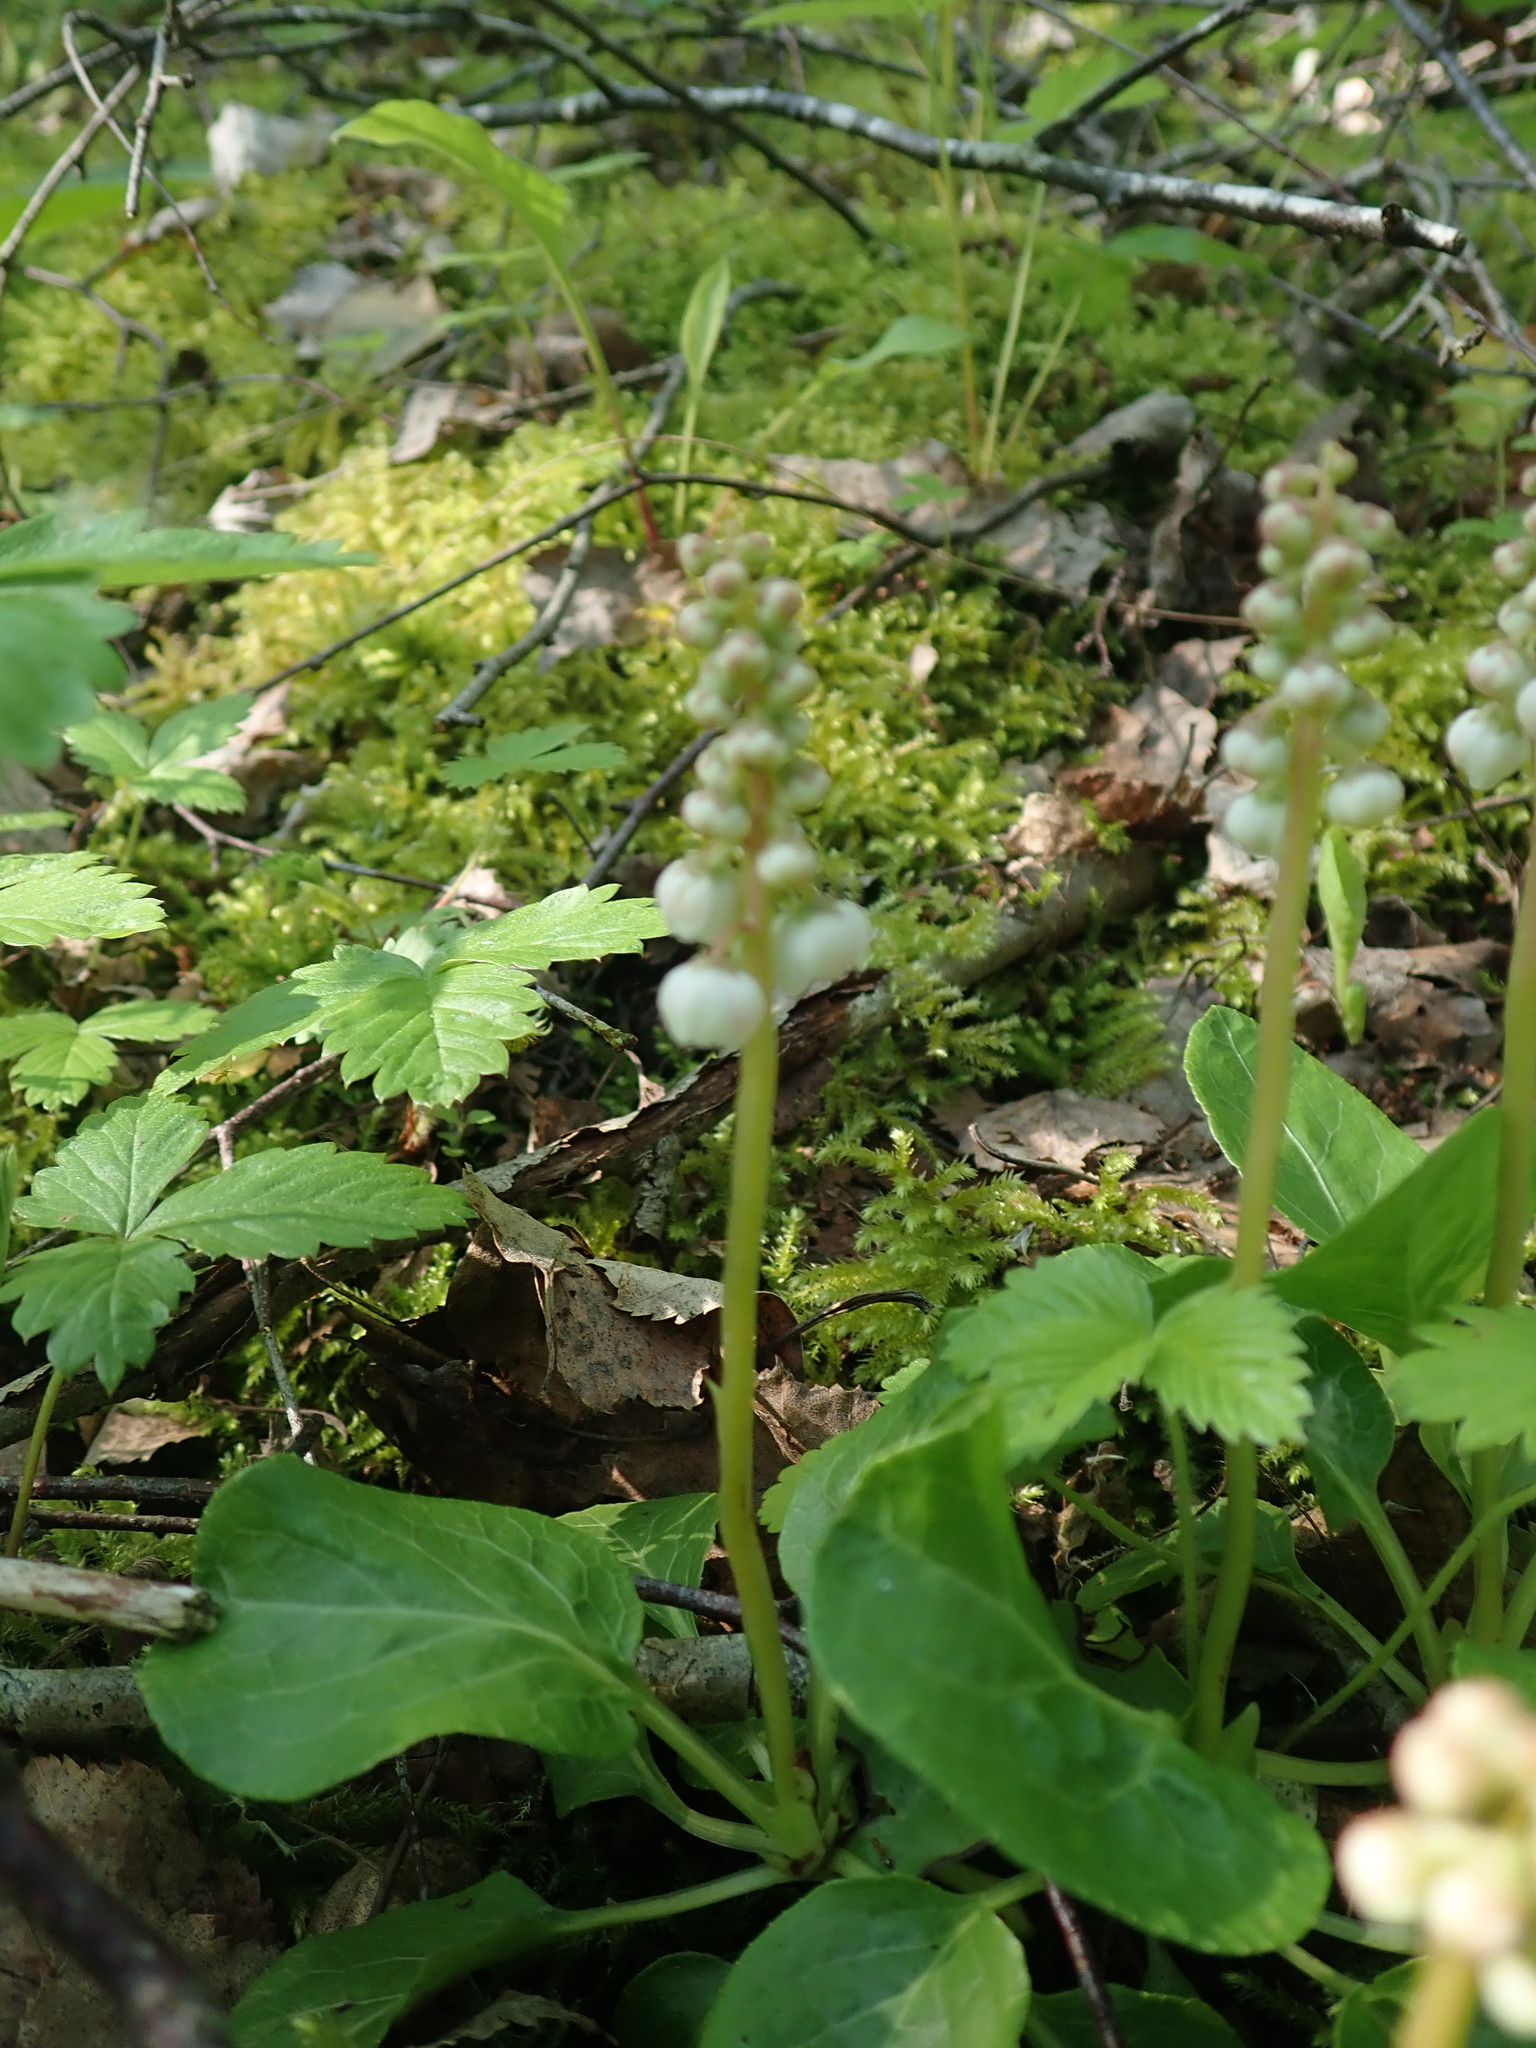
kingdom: Plantae
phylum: Tracheophyta
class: Magnoliopsida
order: Ericales
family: Ericaceae
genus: Pyrola
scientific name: Pyrola minor
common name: Common wintergreen
